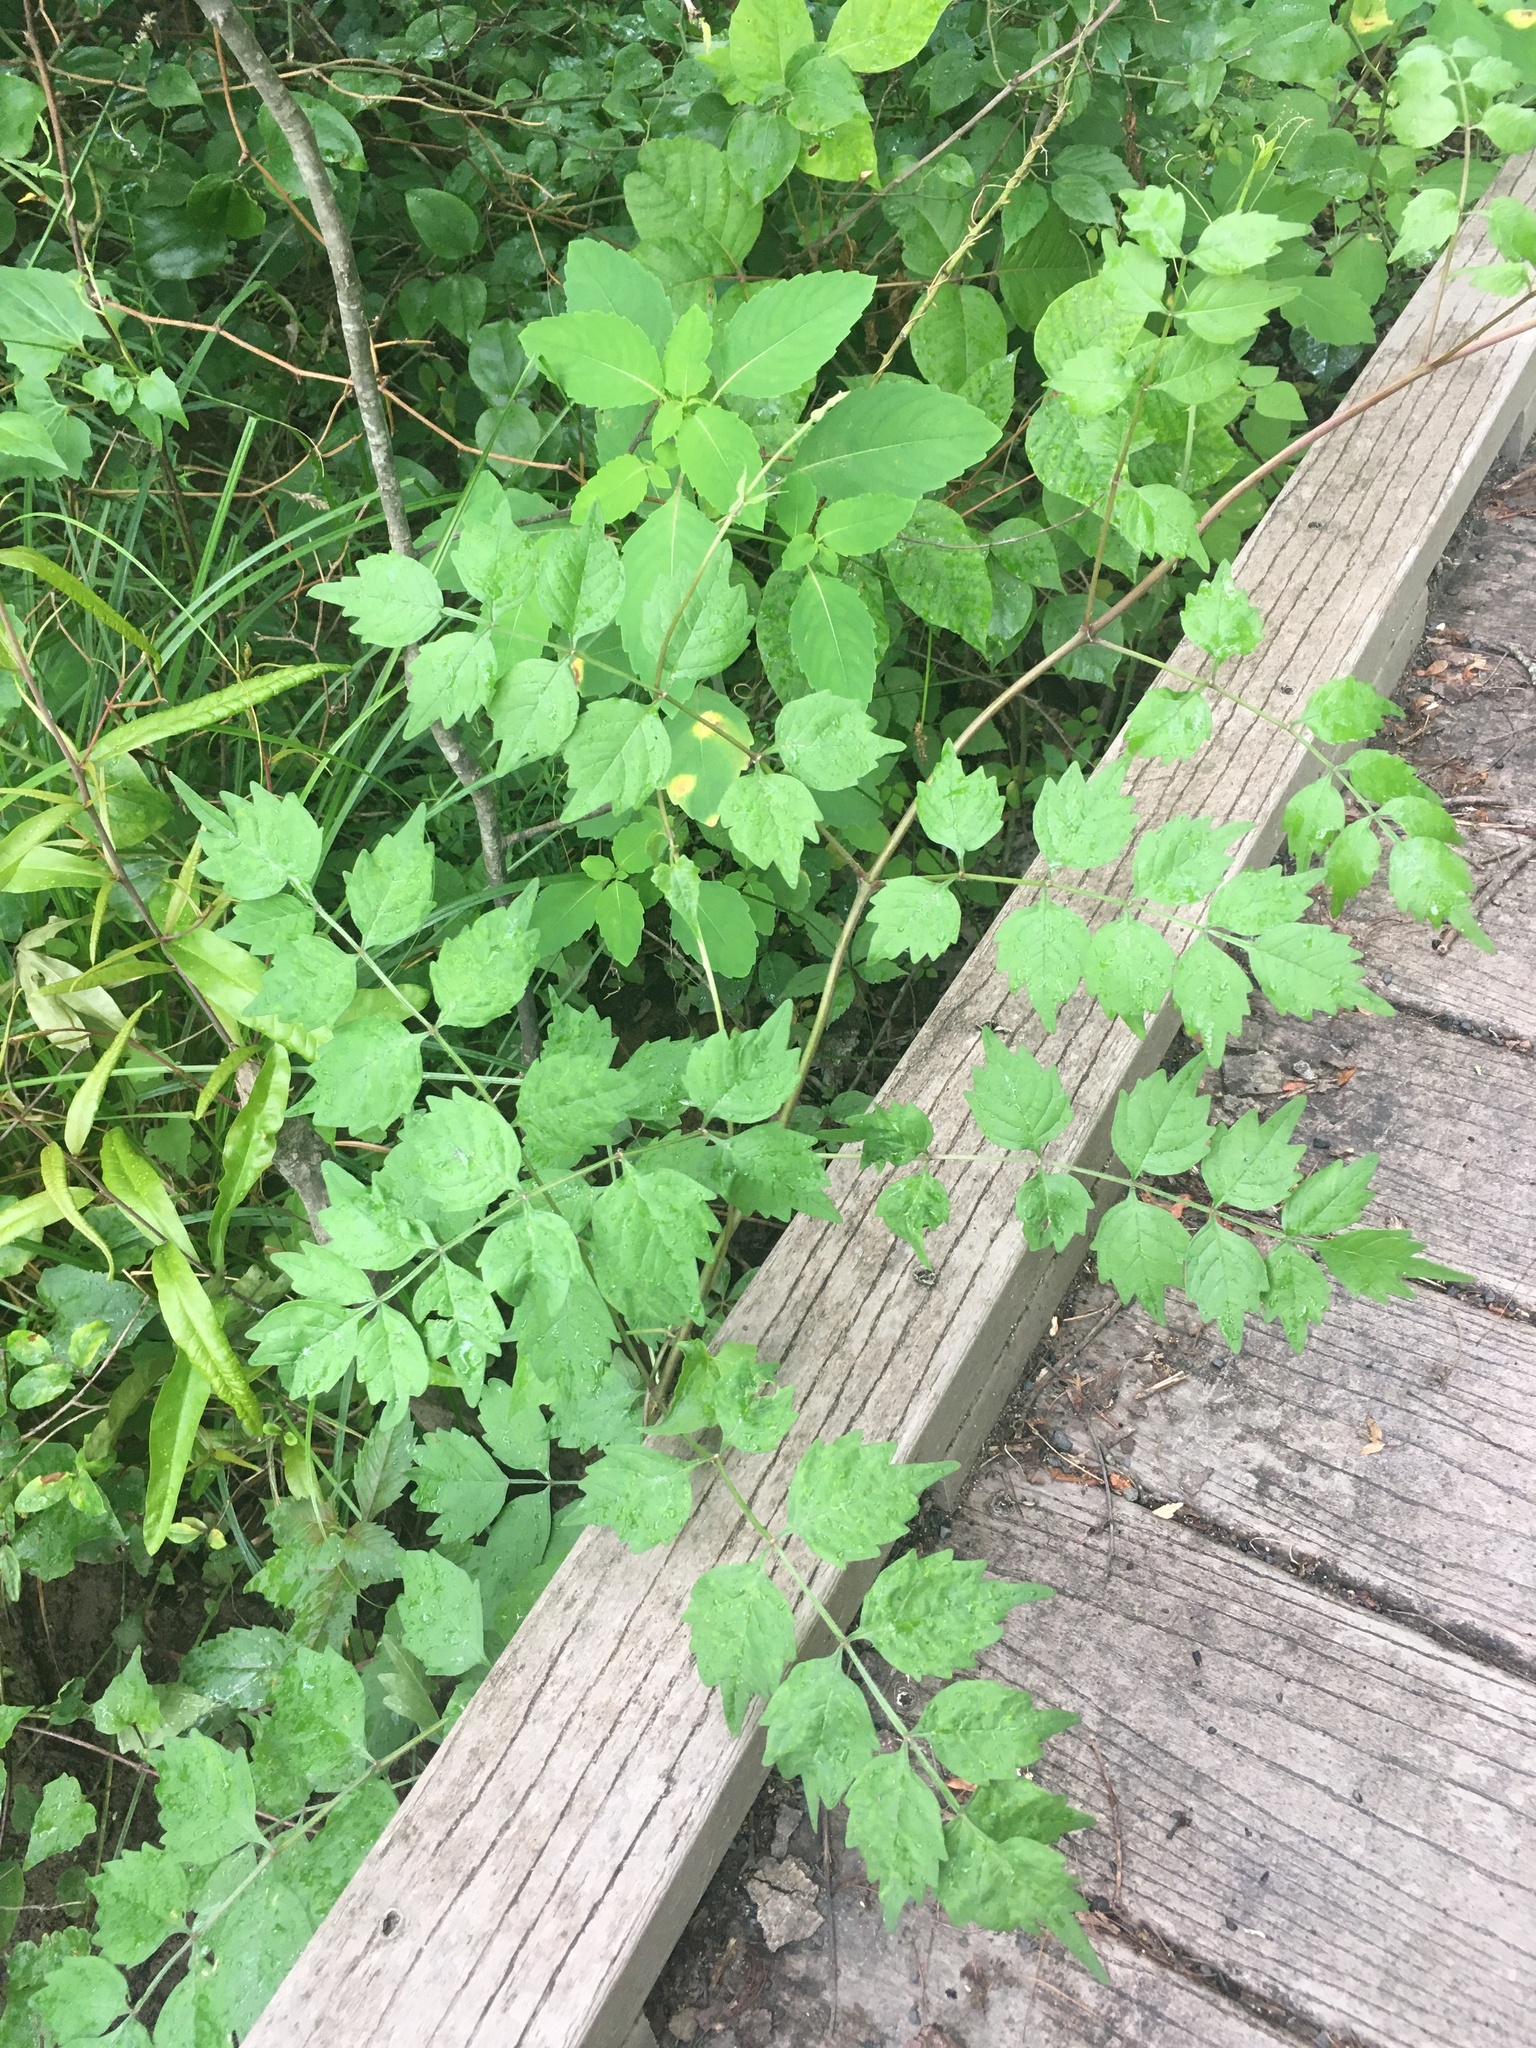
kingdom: Plantae
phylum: Tracheophyta
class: Magnoliopsida
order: Lamiales
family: Bignoniaceae
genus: Campsis
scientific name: Campsis radicans
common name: Trumpet-creeper
